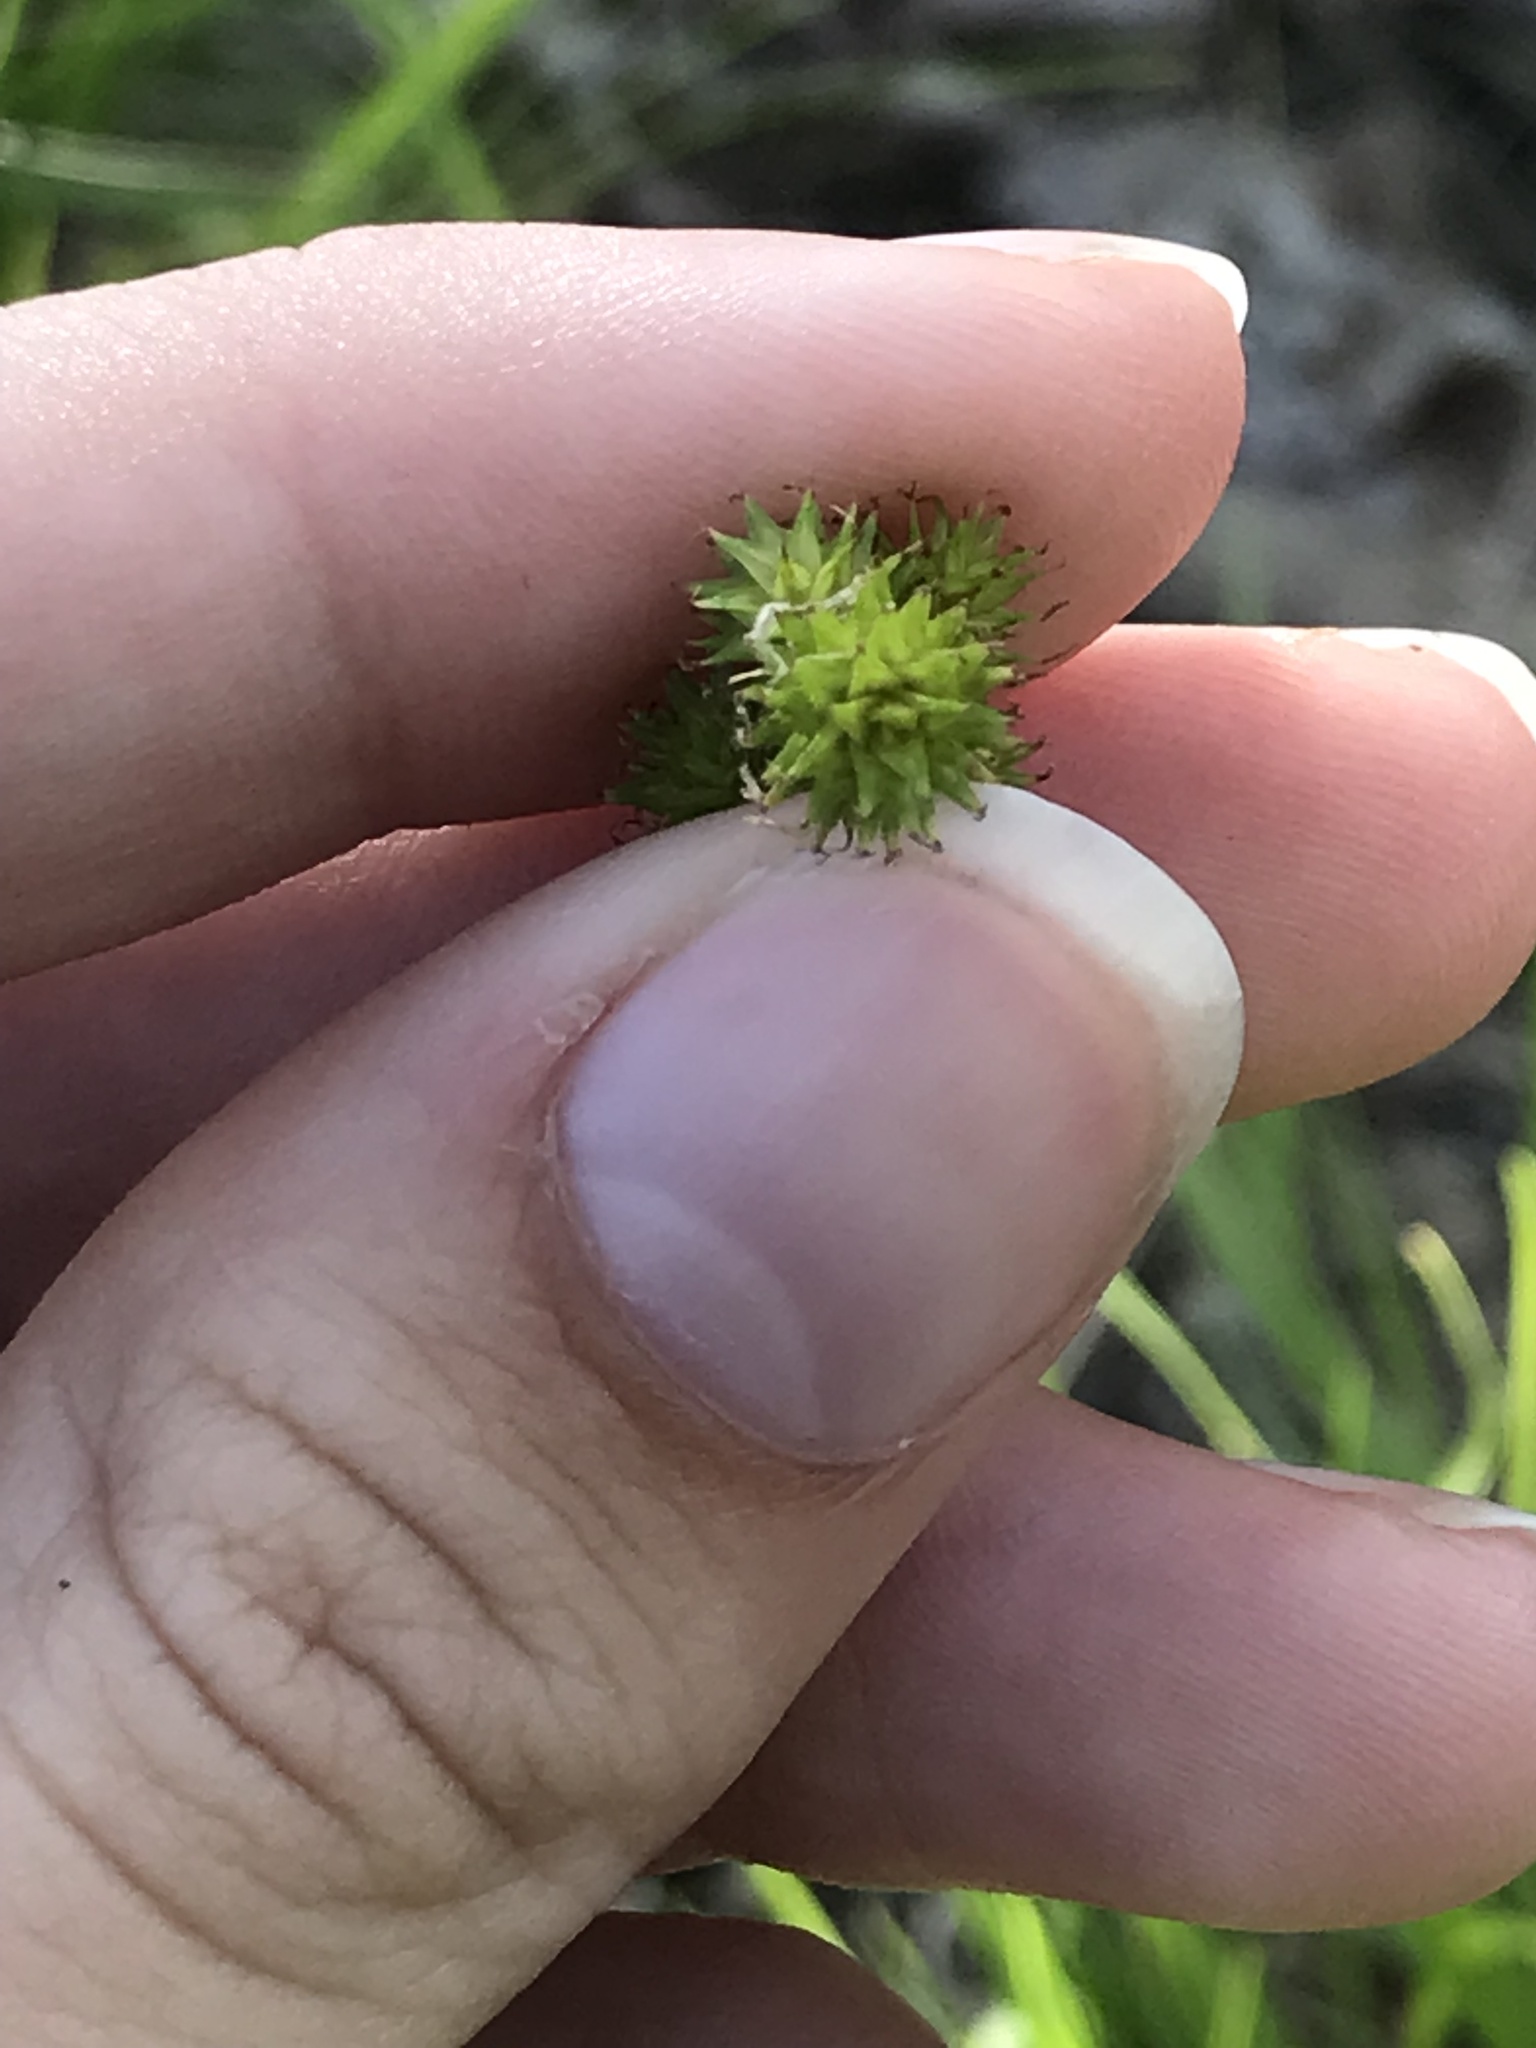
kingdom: Plantae
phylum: Tracheophyta
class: Liliopsida
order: Poales
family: Cyperaceae
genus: Carex
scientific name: Carex normalis
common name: Greater straw sedge
